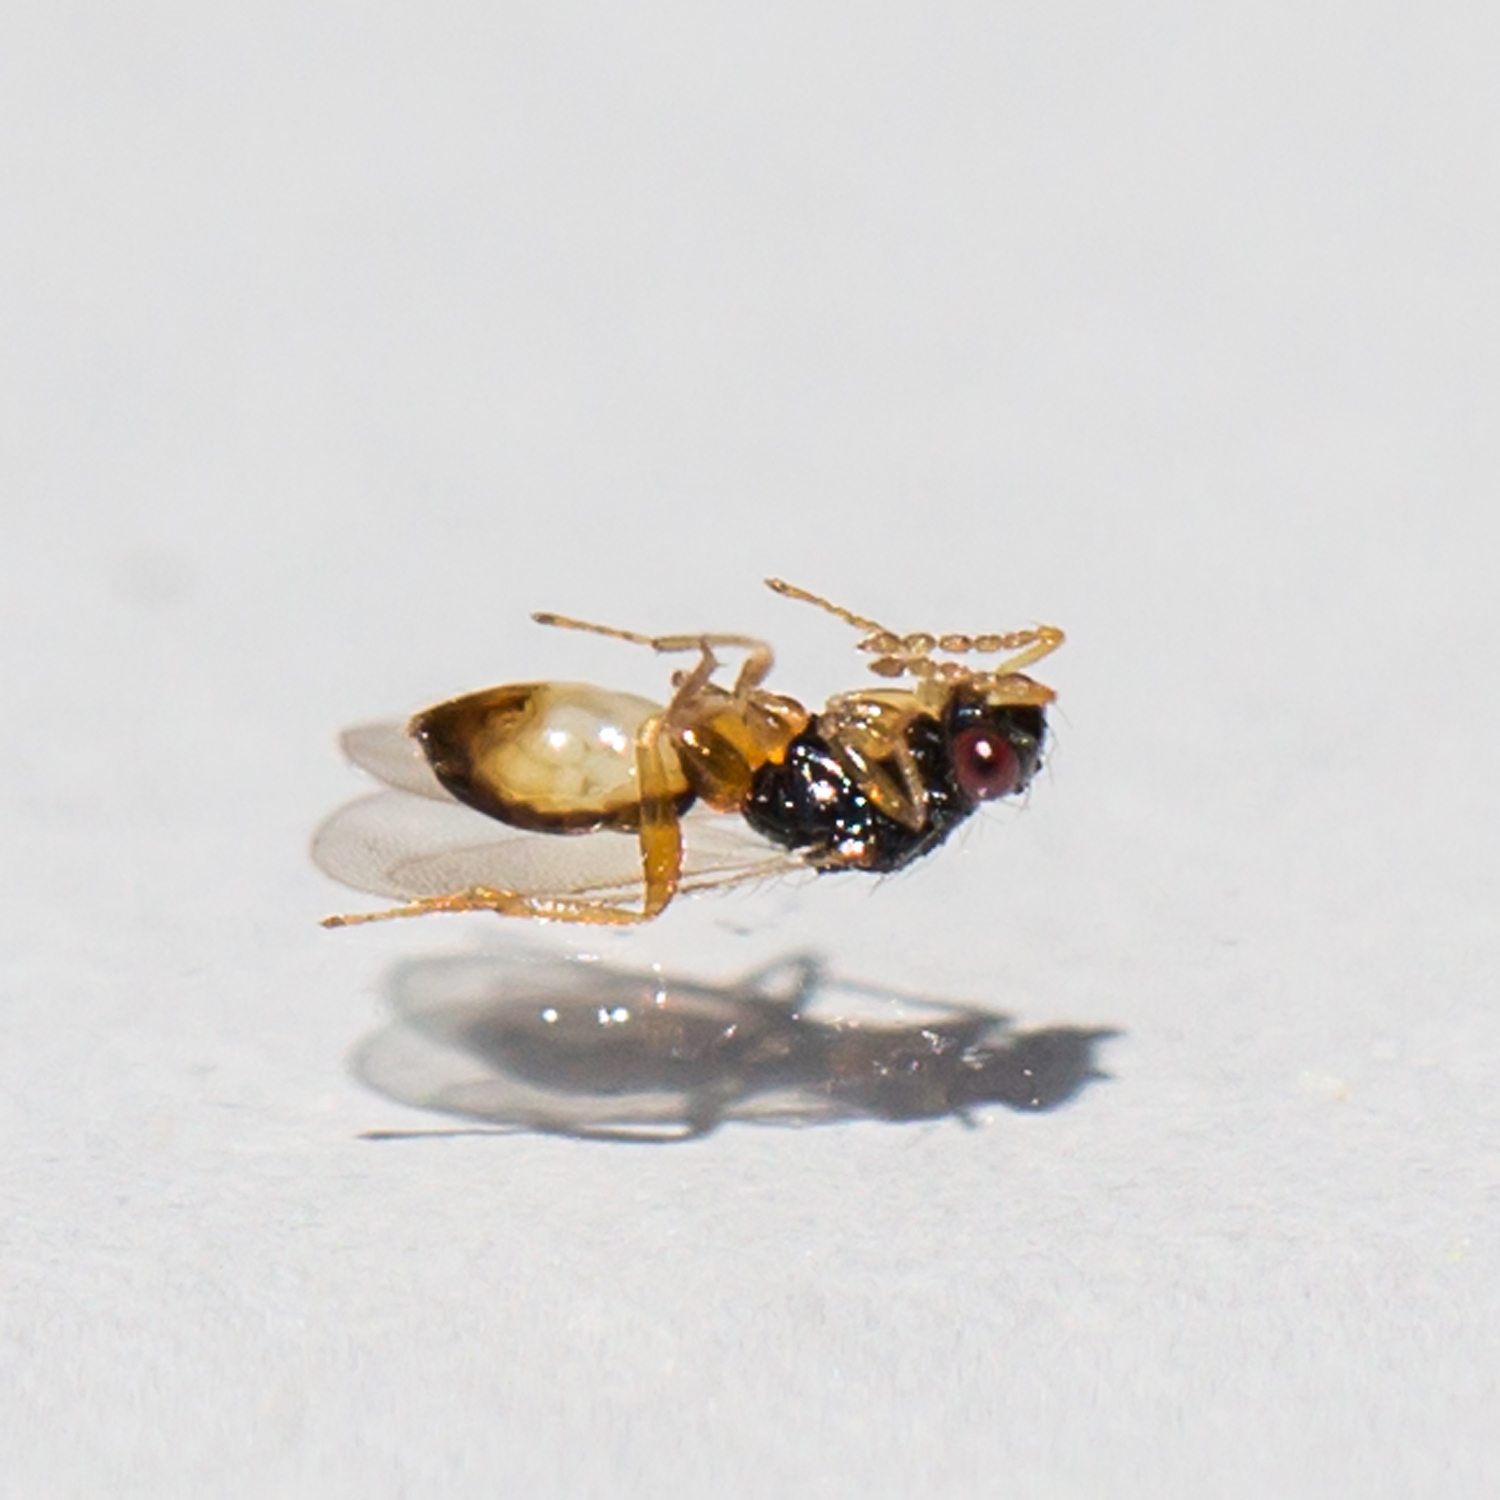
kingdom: Animalia
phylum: Arthropoda
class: Insecta
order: Hymenoptera
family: Eulophidae
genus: Euplectrus
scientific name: Euplectrus
